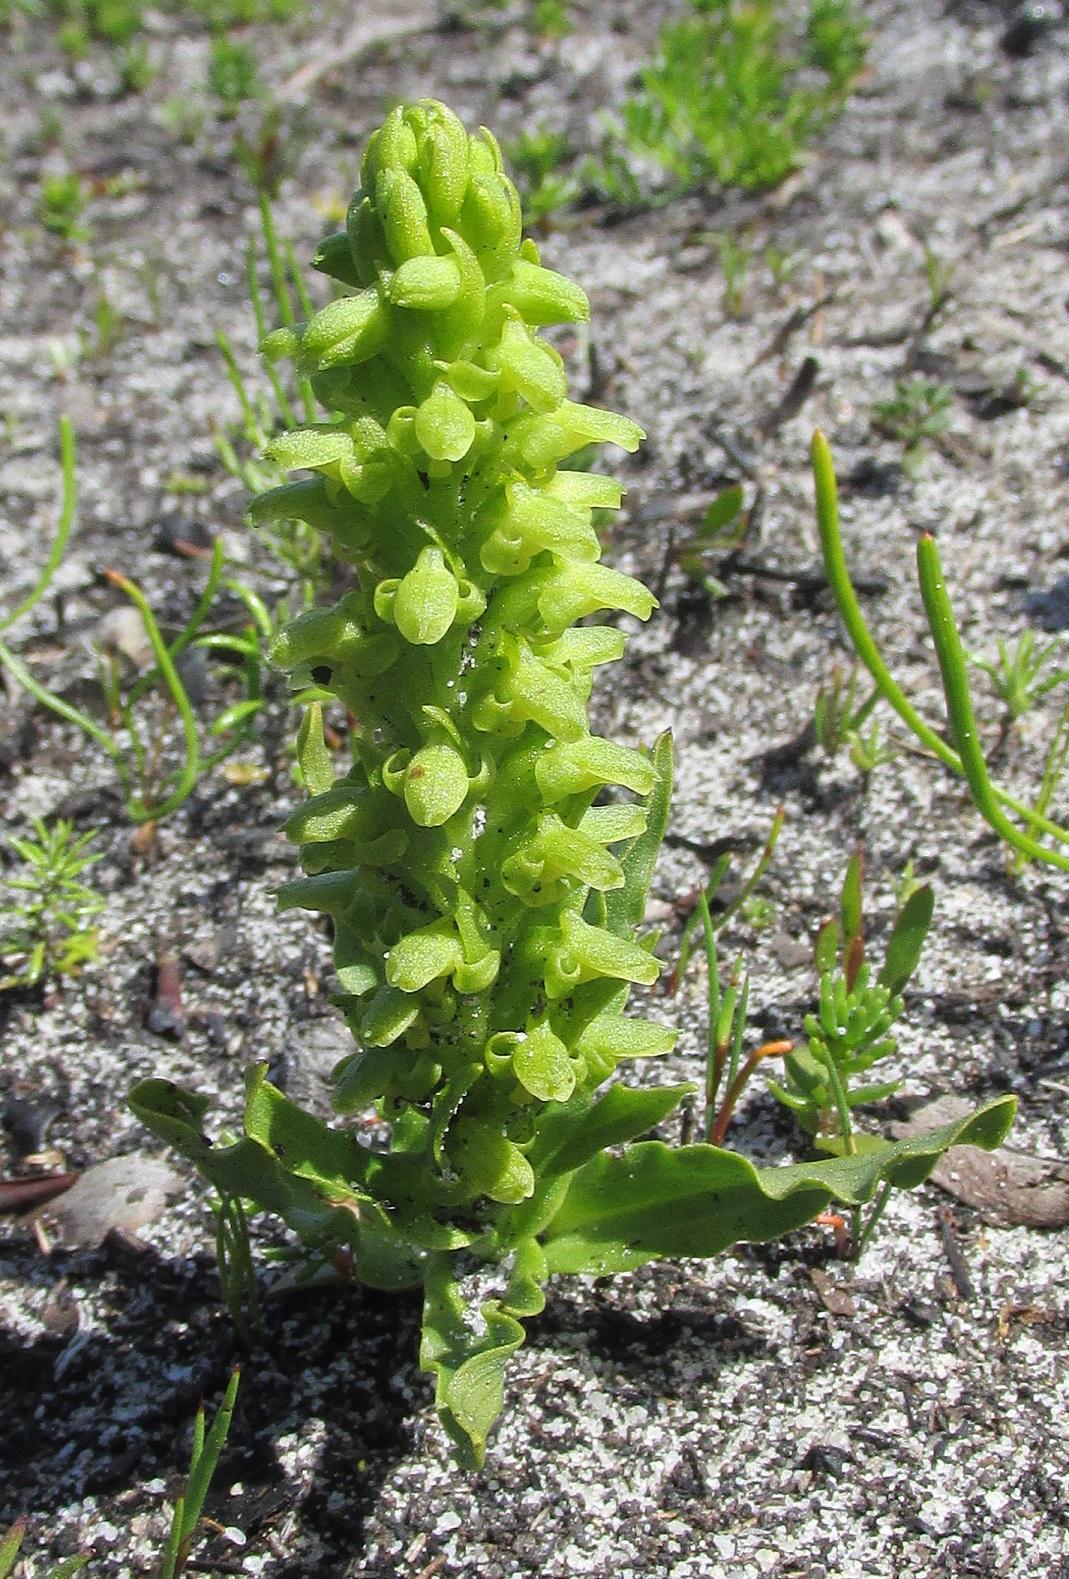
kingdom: Plantae
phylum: Tracheophyta
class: Liliopsida
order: Asparagales
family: Orchidaceae
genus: Disa
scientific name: Disa cylindrica
